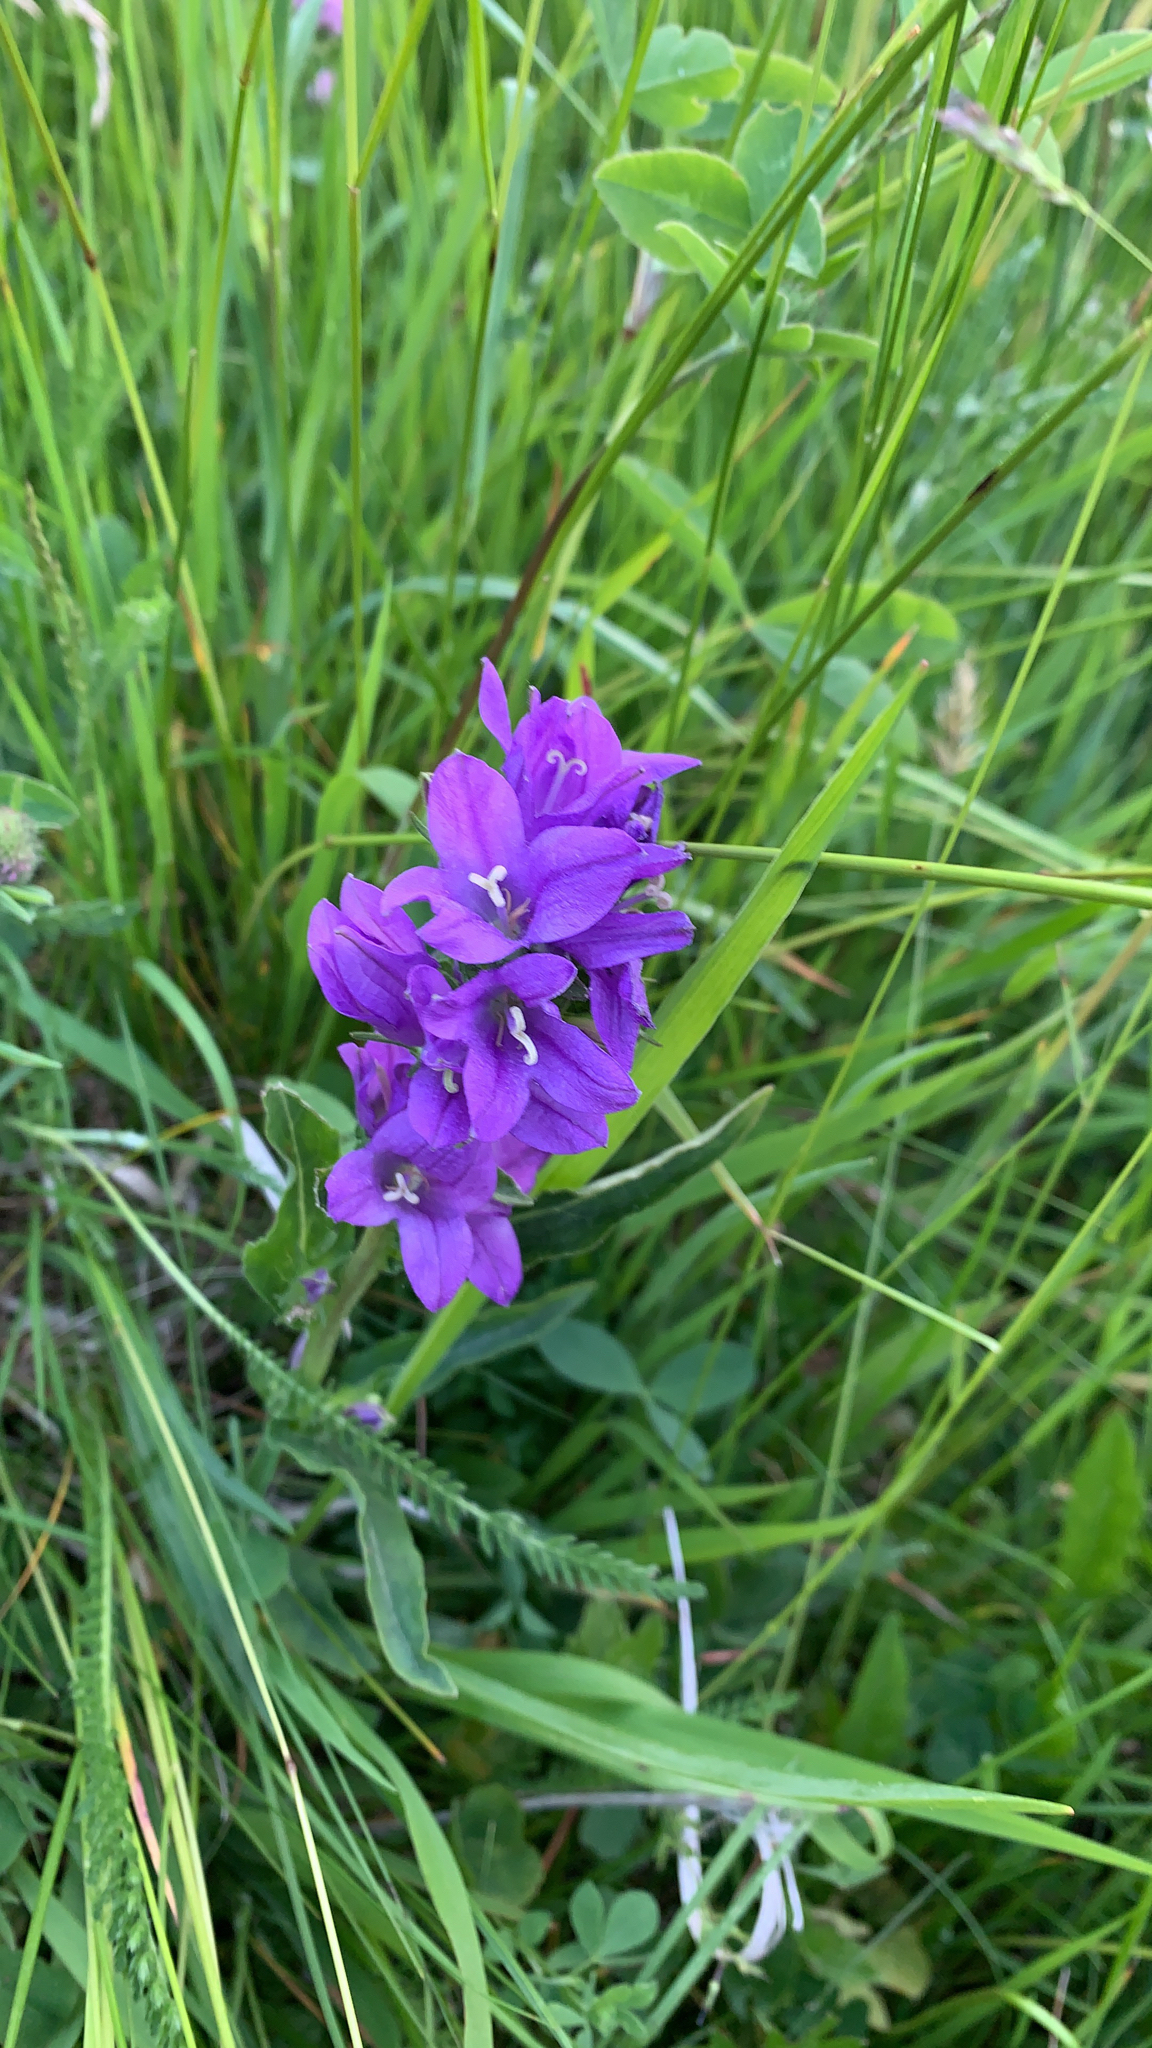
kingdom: Plantae
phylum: Tracheophyta
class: Magnoliopsida
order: Asterales
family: Campanulaceae
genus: Campanula
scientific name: Campanula glomerata
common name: Clustered bellflower
